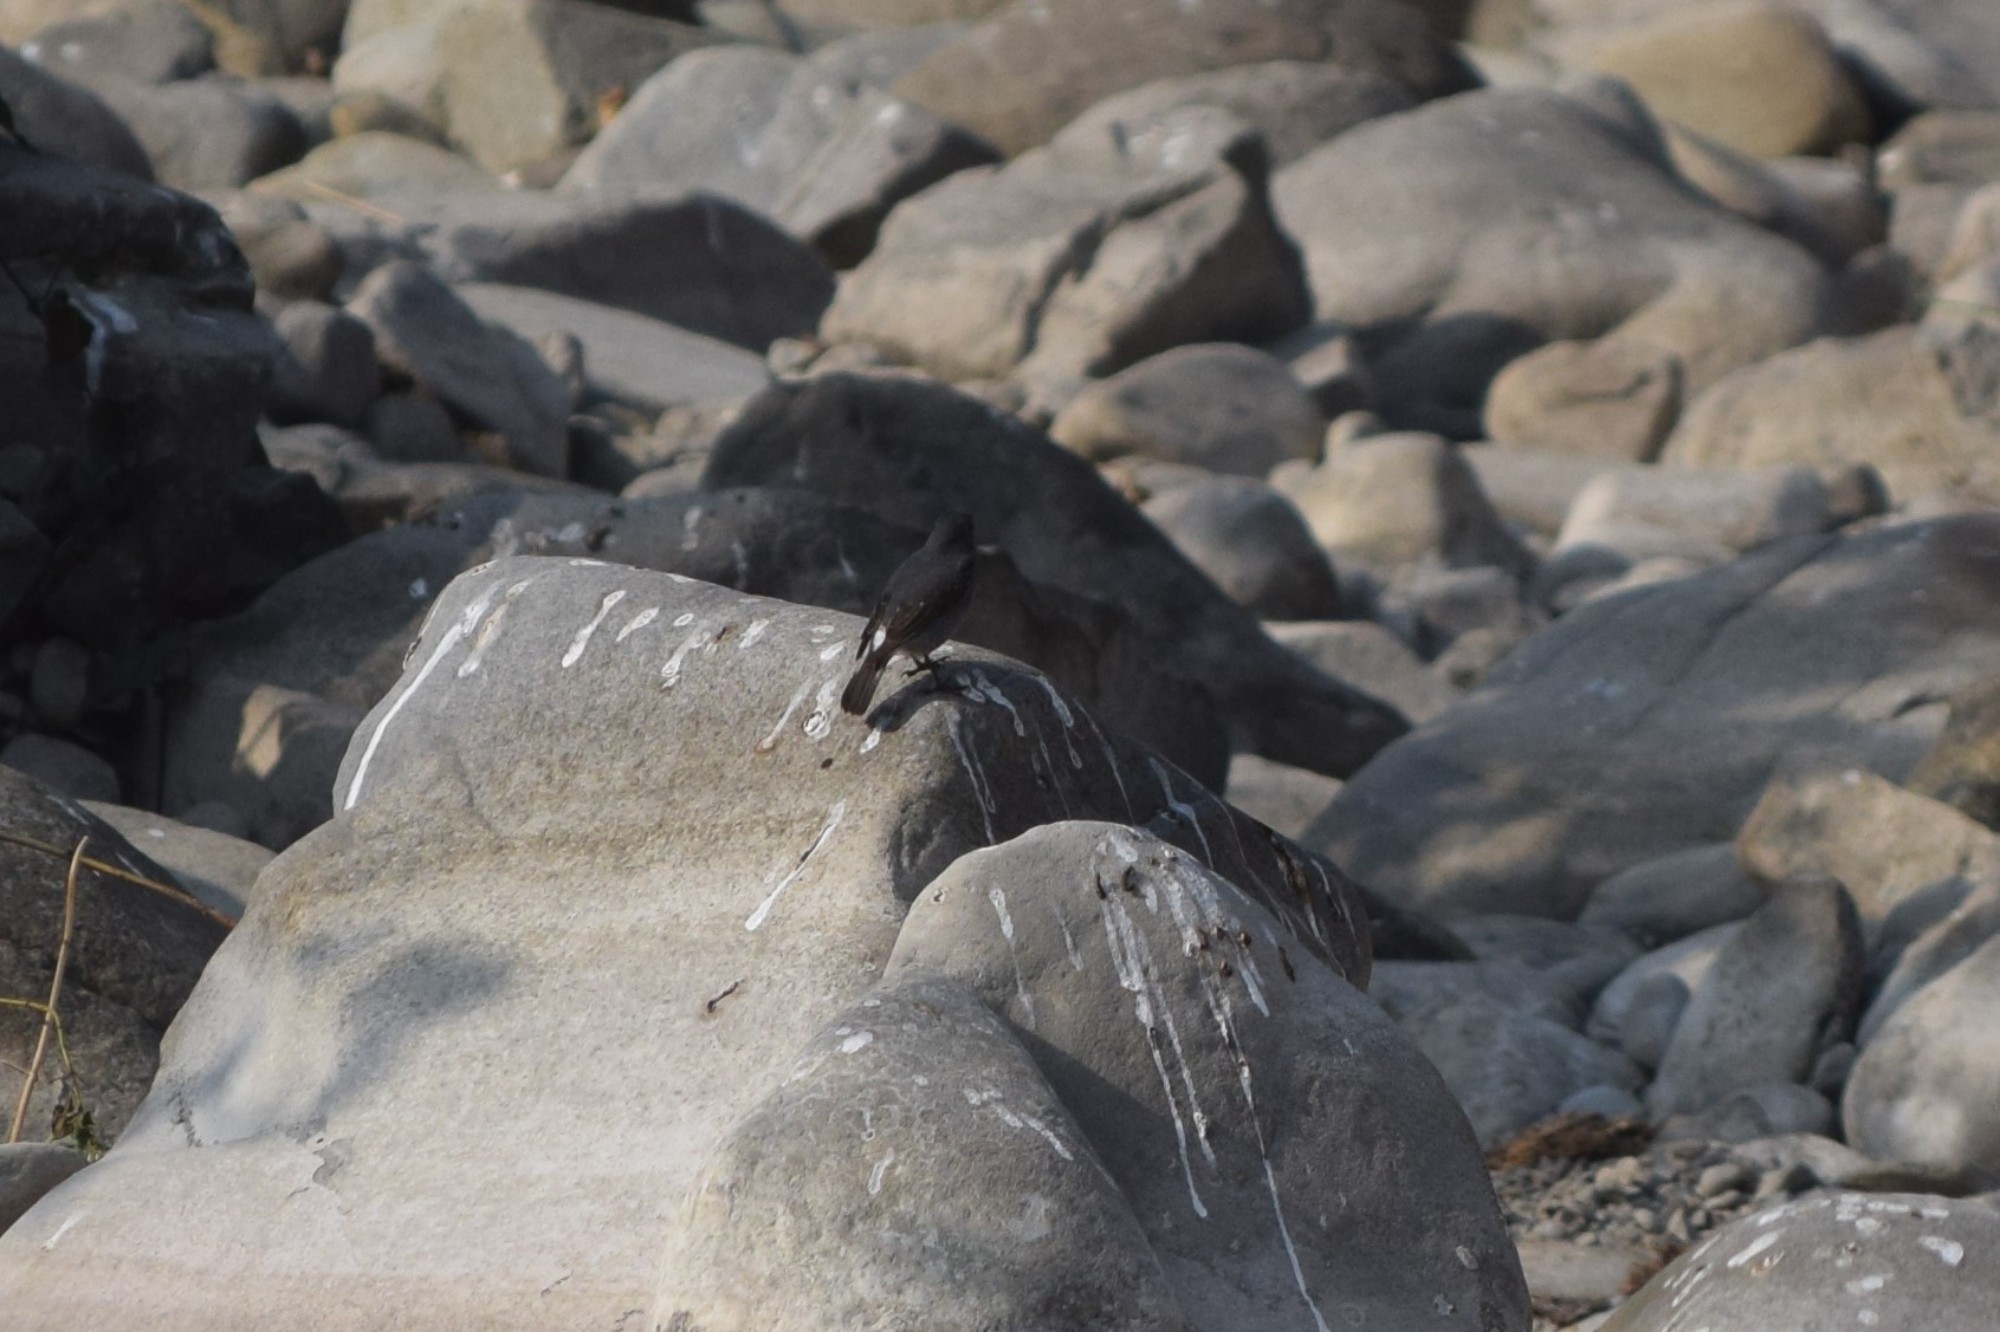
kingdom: Animalia
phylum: Chordata
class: Aves
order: Passeriformes
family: Muscicapidae
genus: Phoenicurus
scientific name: Phoenicurus fuliginosus
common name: Plumbeous water redstart
